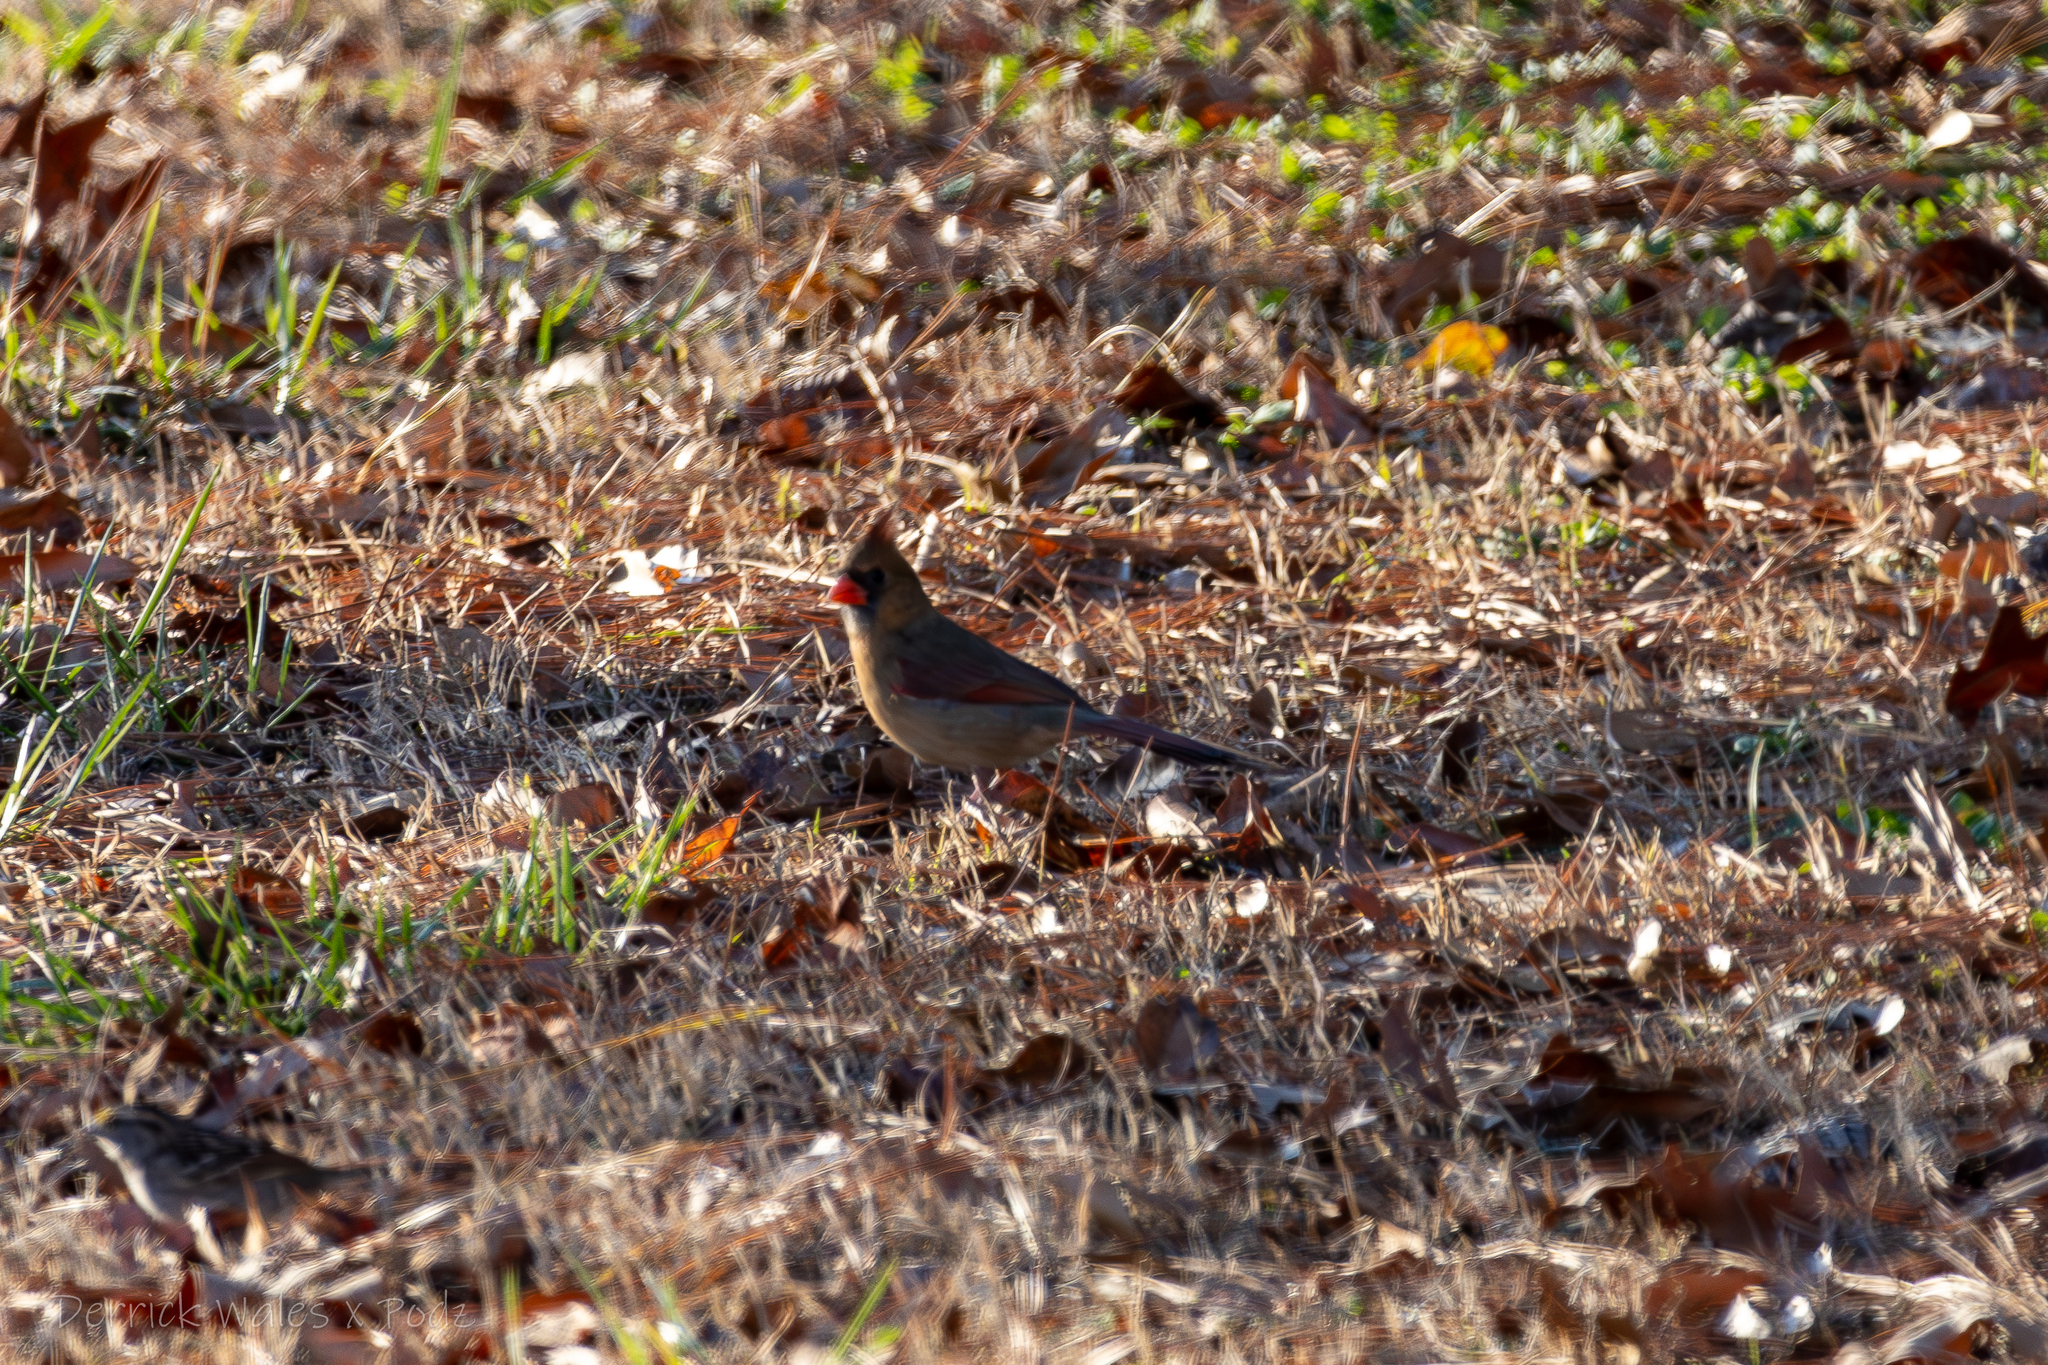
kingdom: Animalia
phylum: Chordata
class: Aves
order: Passeriformes
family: Cardinalidae
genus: Cardinalis
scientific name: Cardinalis cardinalis
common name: Northern cardinal
